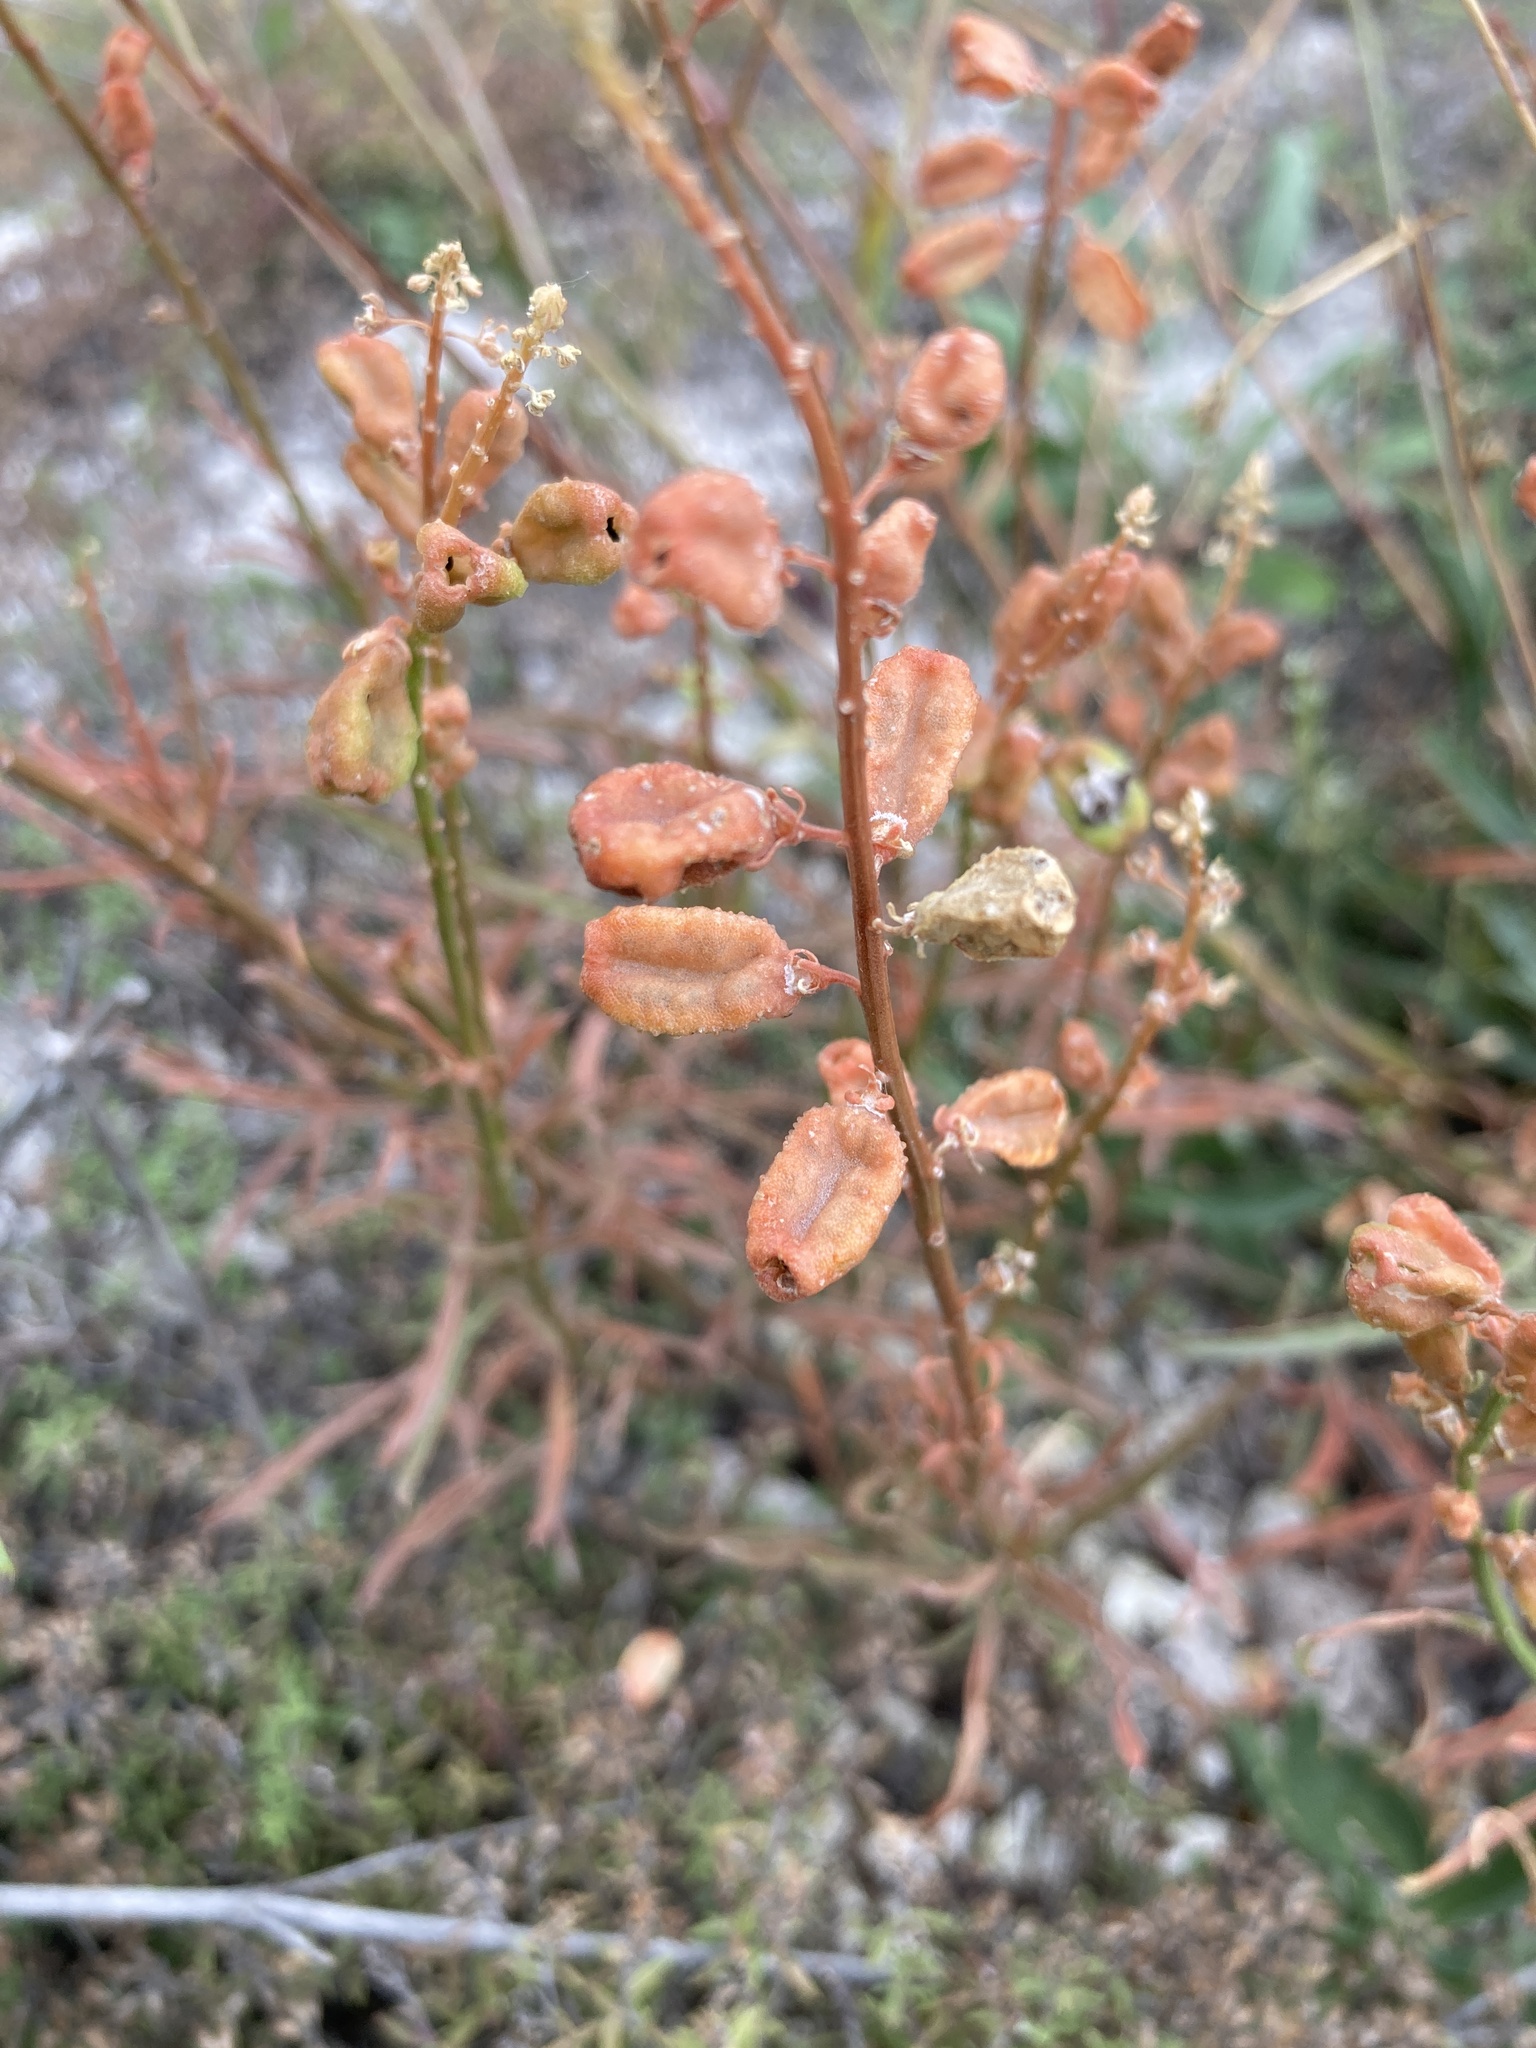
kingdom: Plantae
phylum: Tracheophyta
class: Magnoliopsida
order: Brassicales
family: Resedaceae
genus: Reseda
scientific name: Reseda lutea
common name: Wild mignonette
